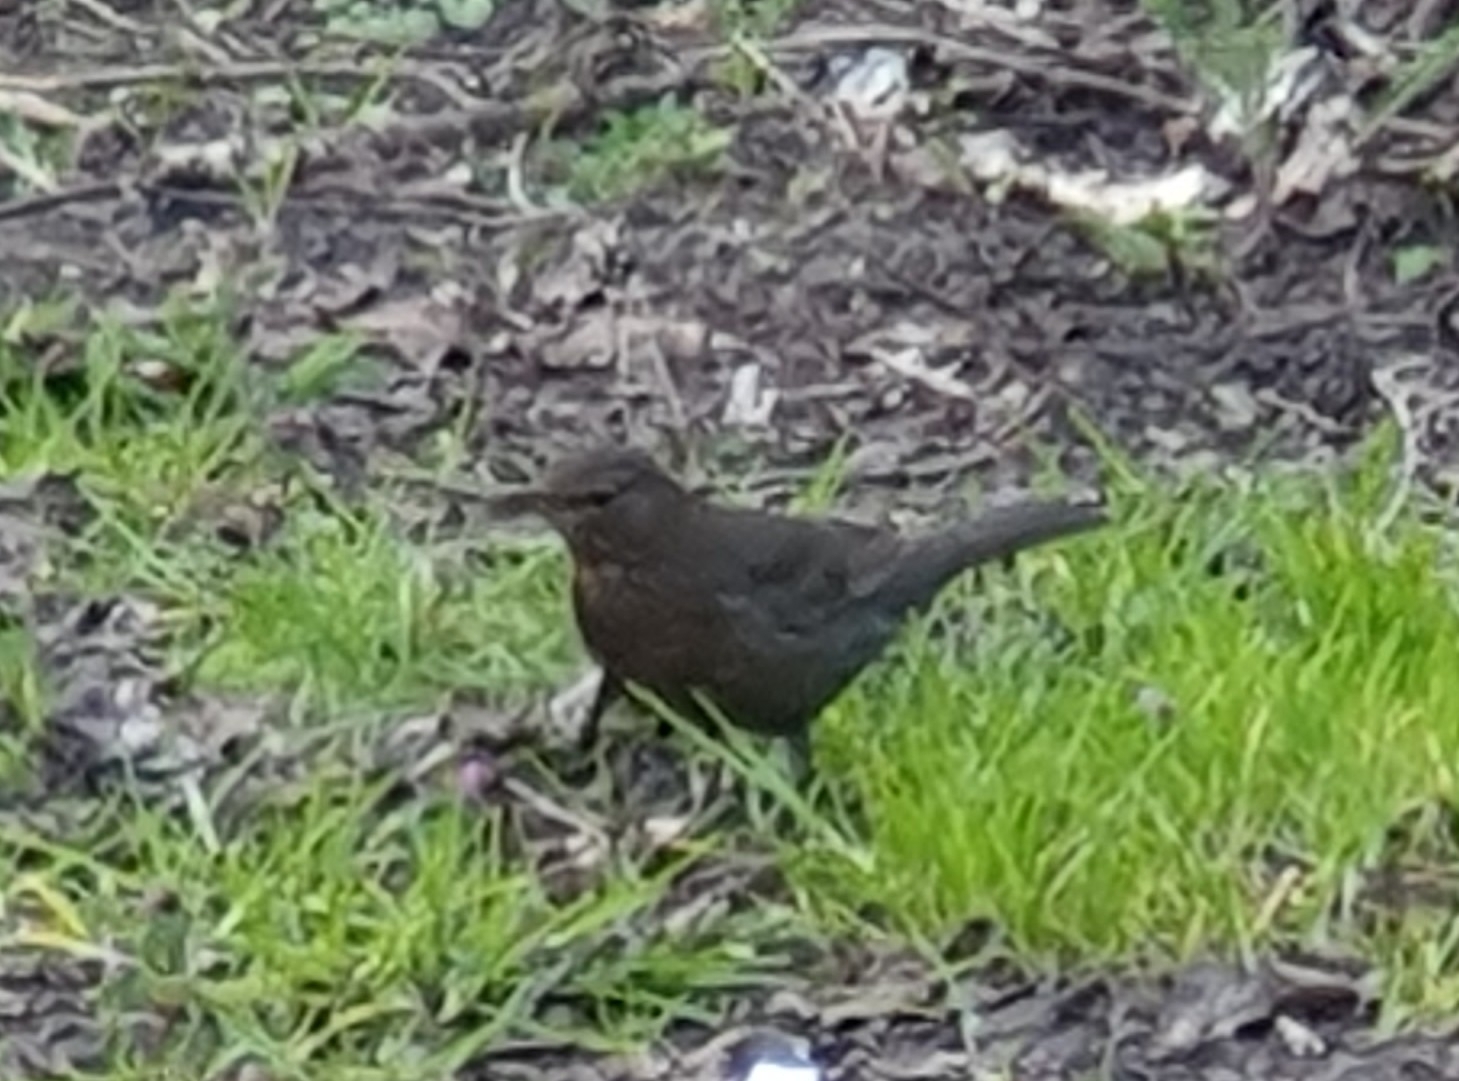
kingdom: Animalia
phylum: Chordata
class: Aves
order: Passeriformes
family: Turdidae
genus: Turdus
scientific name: Turdus merula
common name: Common blackbird
